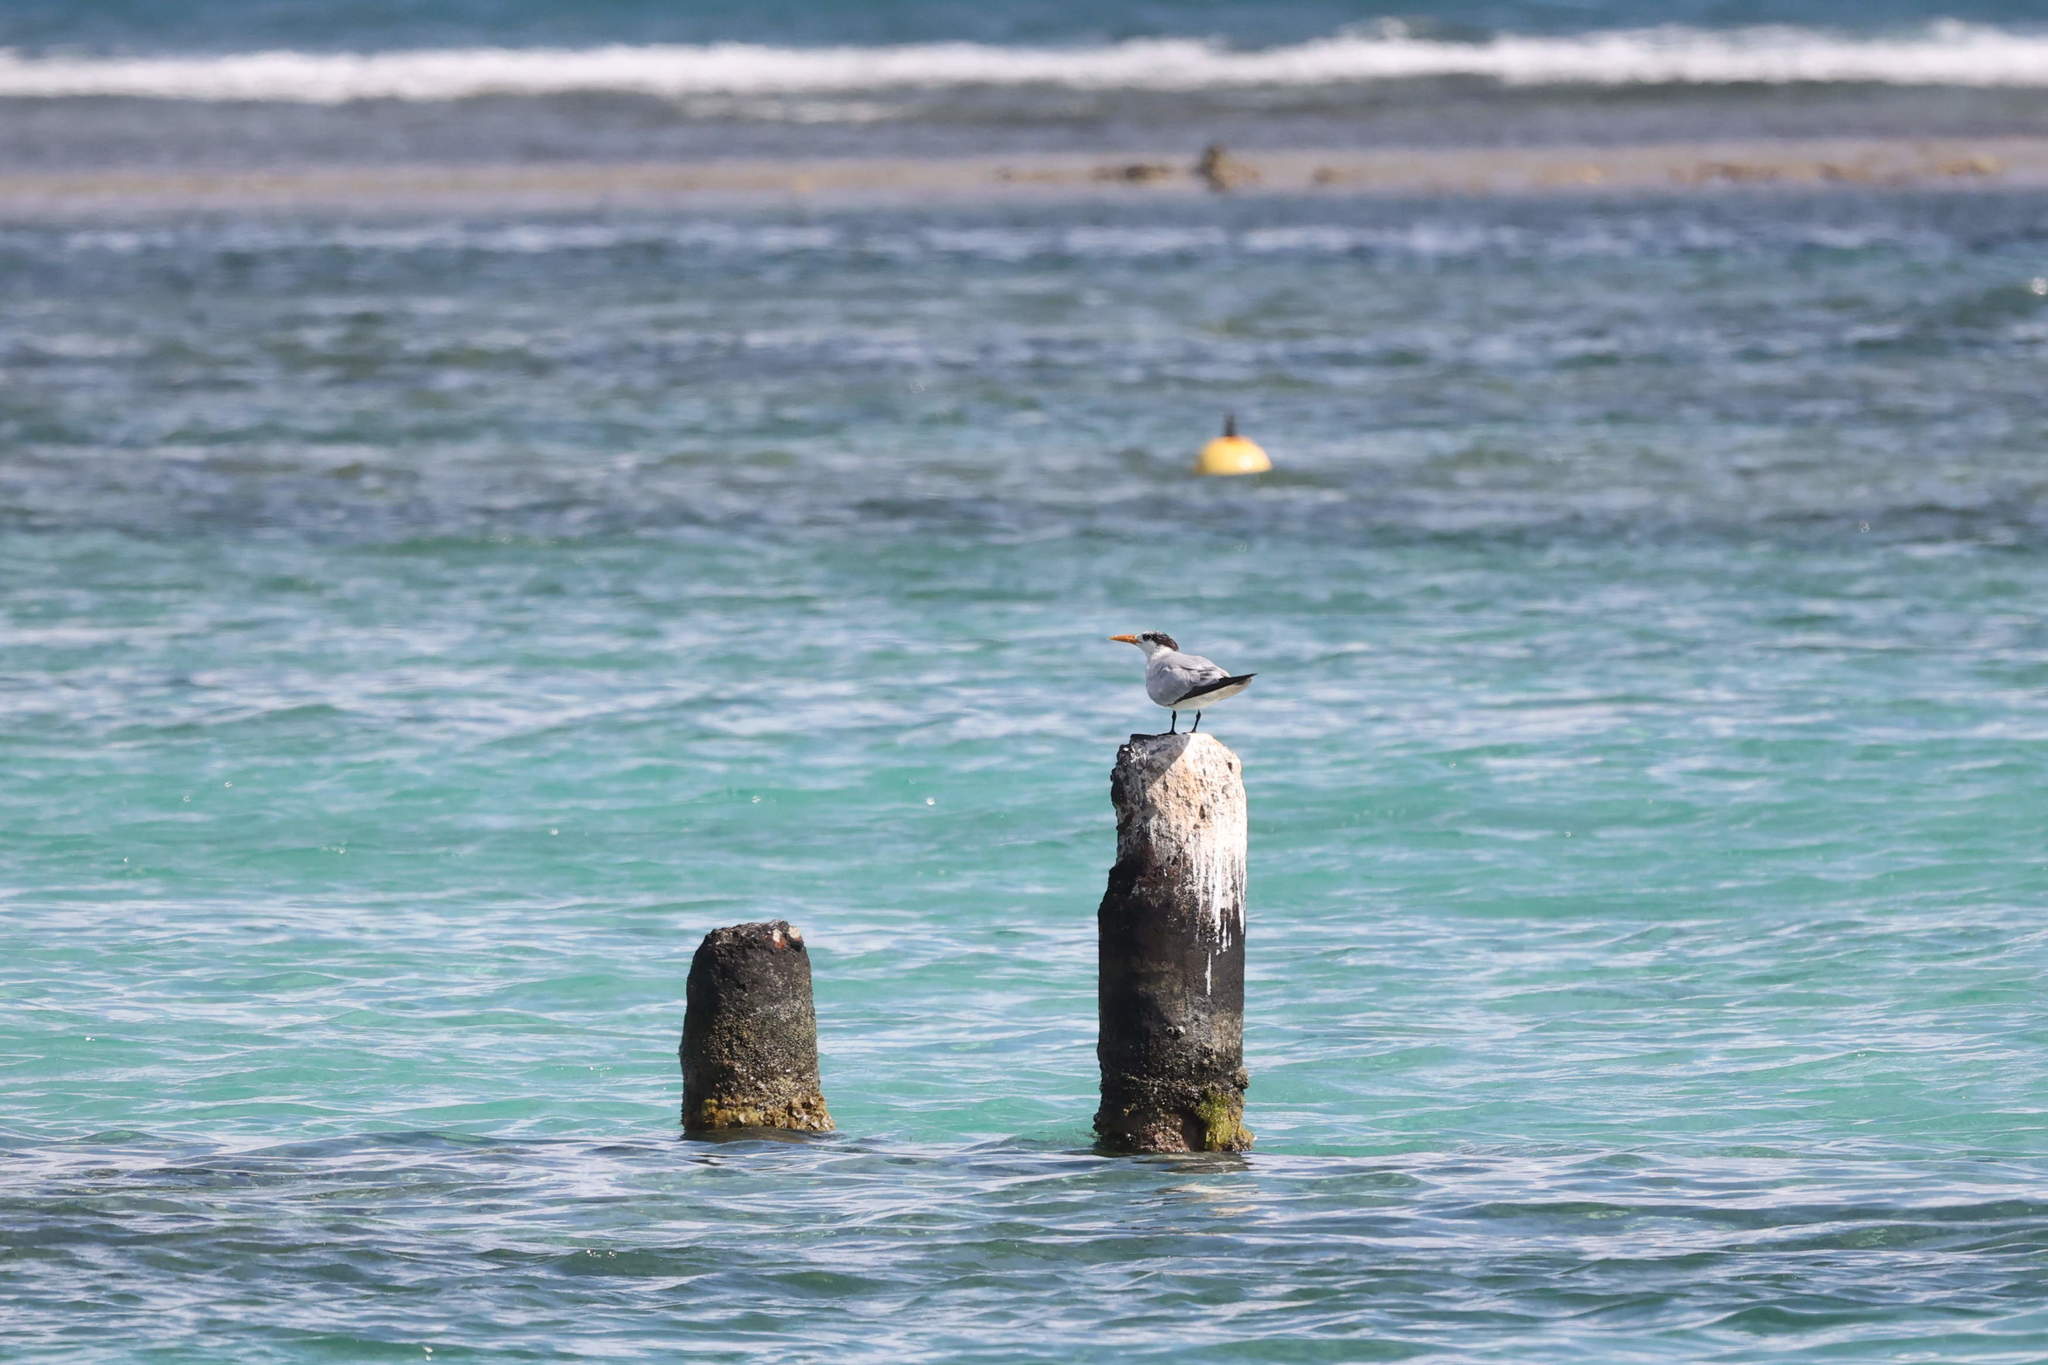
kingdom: Animalia
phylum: Chordata
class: Aves
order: Charadriiformes
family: Laridae
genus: Thalasseus
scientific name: Thalasseus maximus
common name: Royal tern
